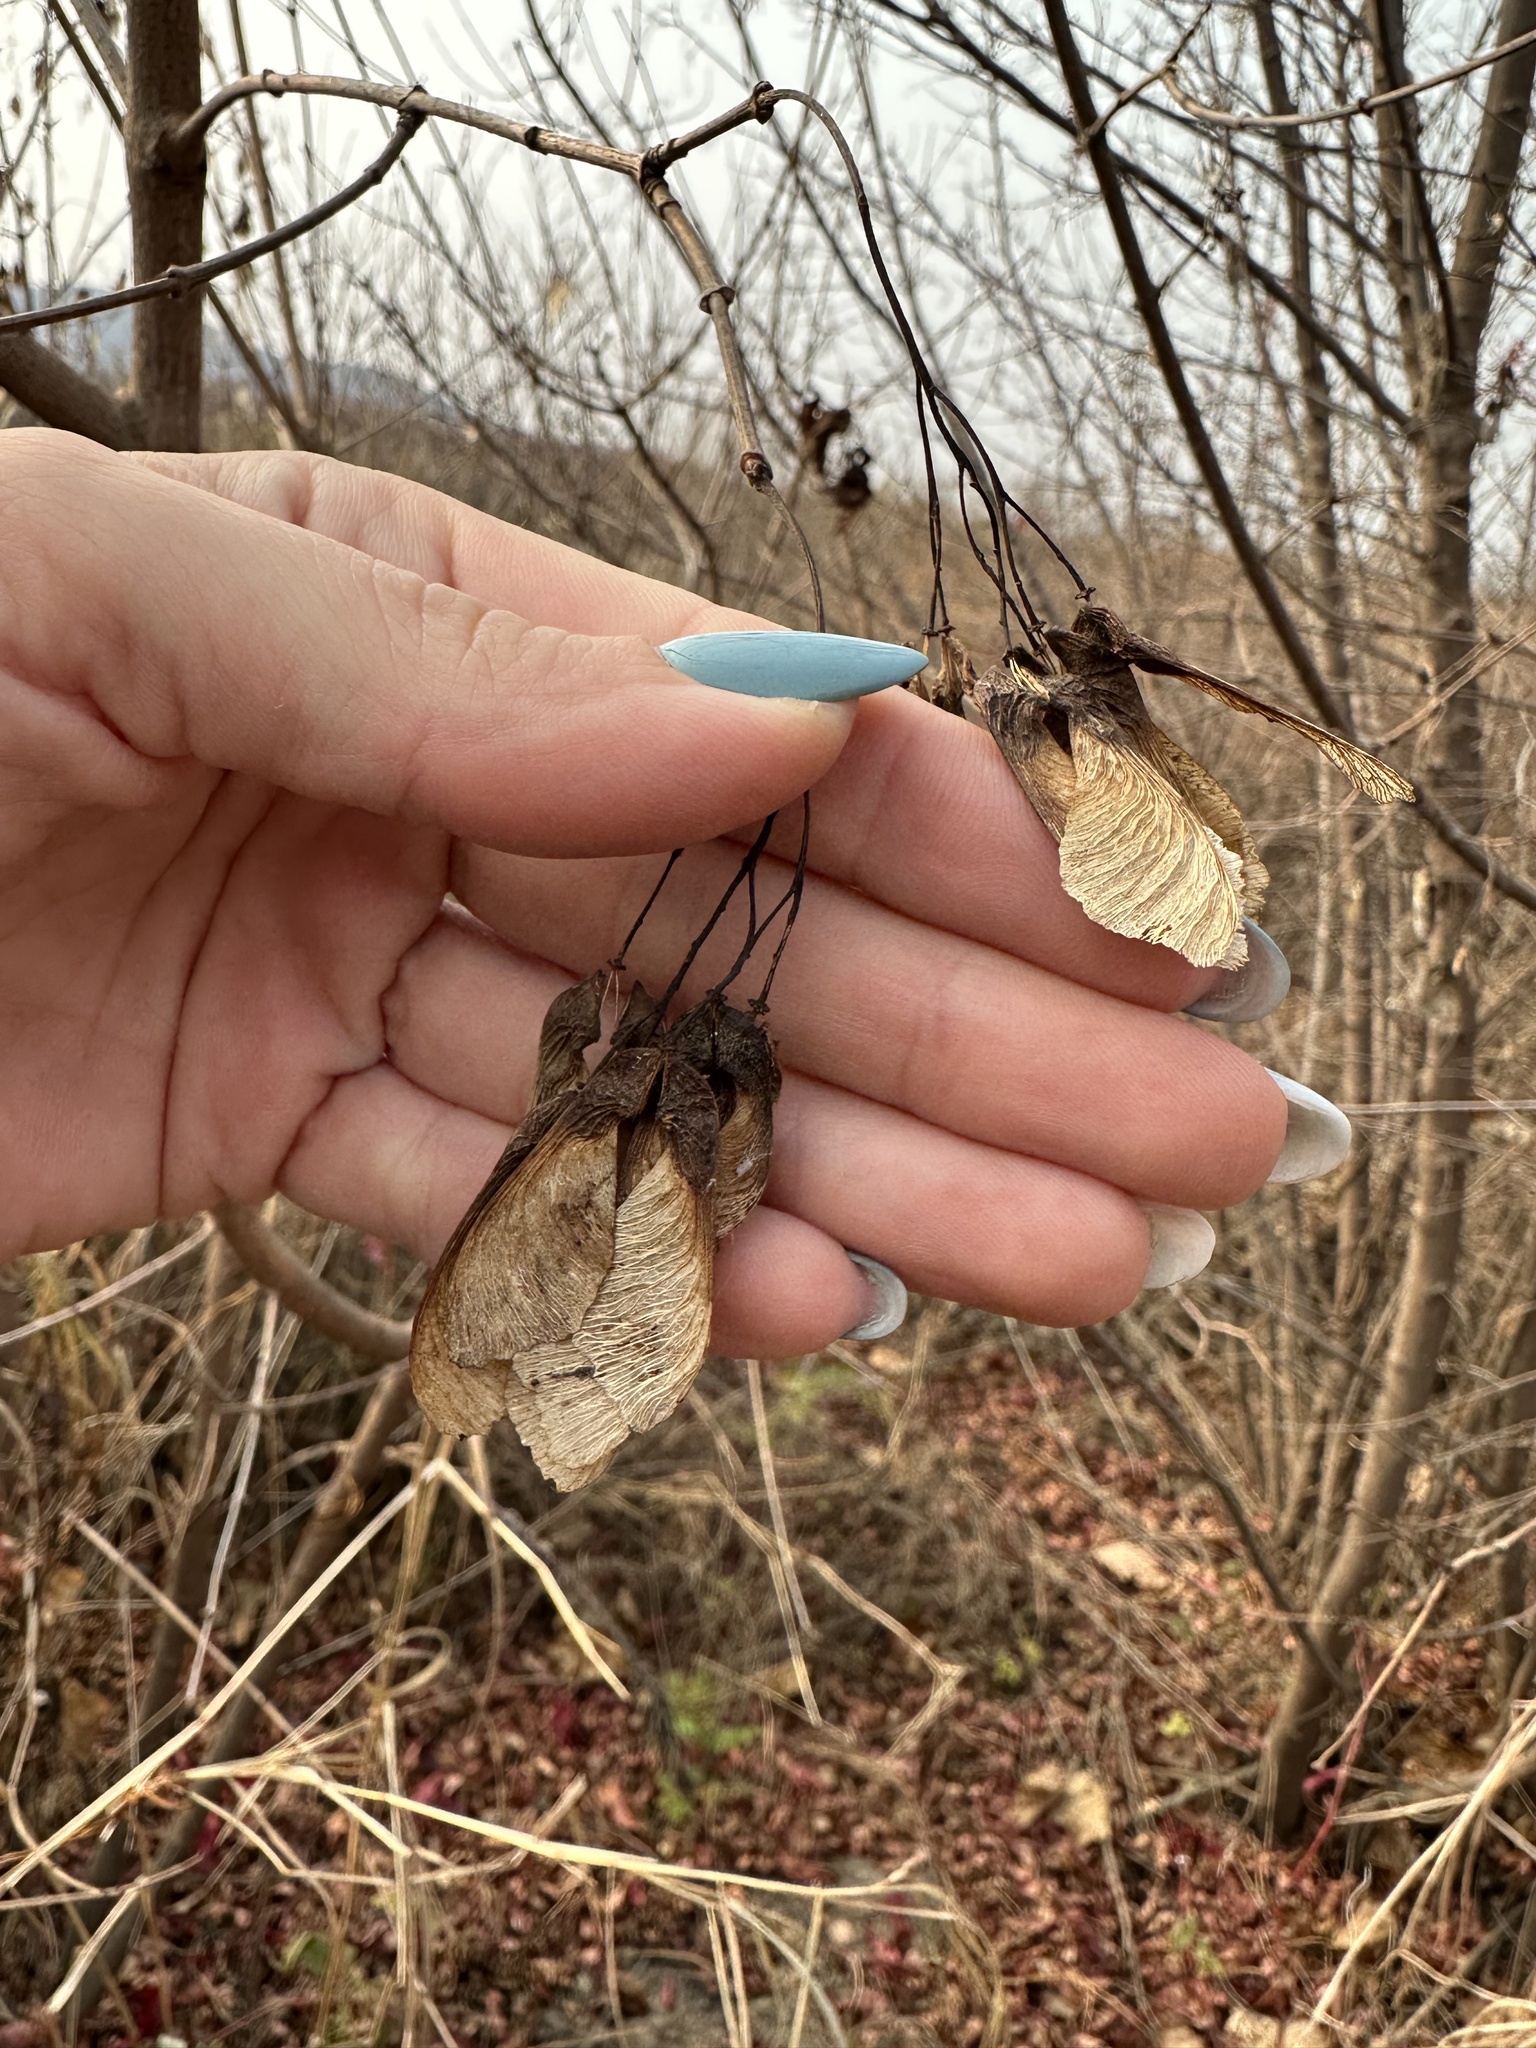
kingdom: Plantae
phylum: Tracheophyta
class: Magnoliopsida
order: Sapindales
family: Sapindaceae
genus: Acer
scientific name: Acer tataricum
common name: Tartar maple
